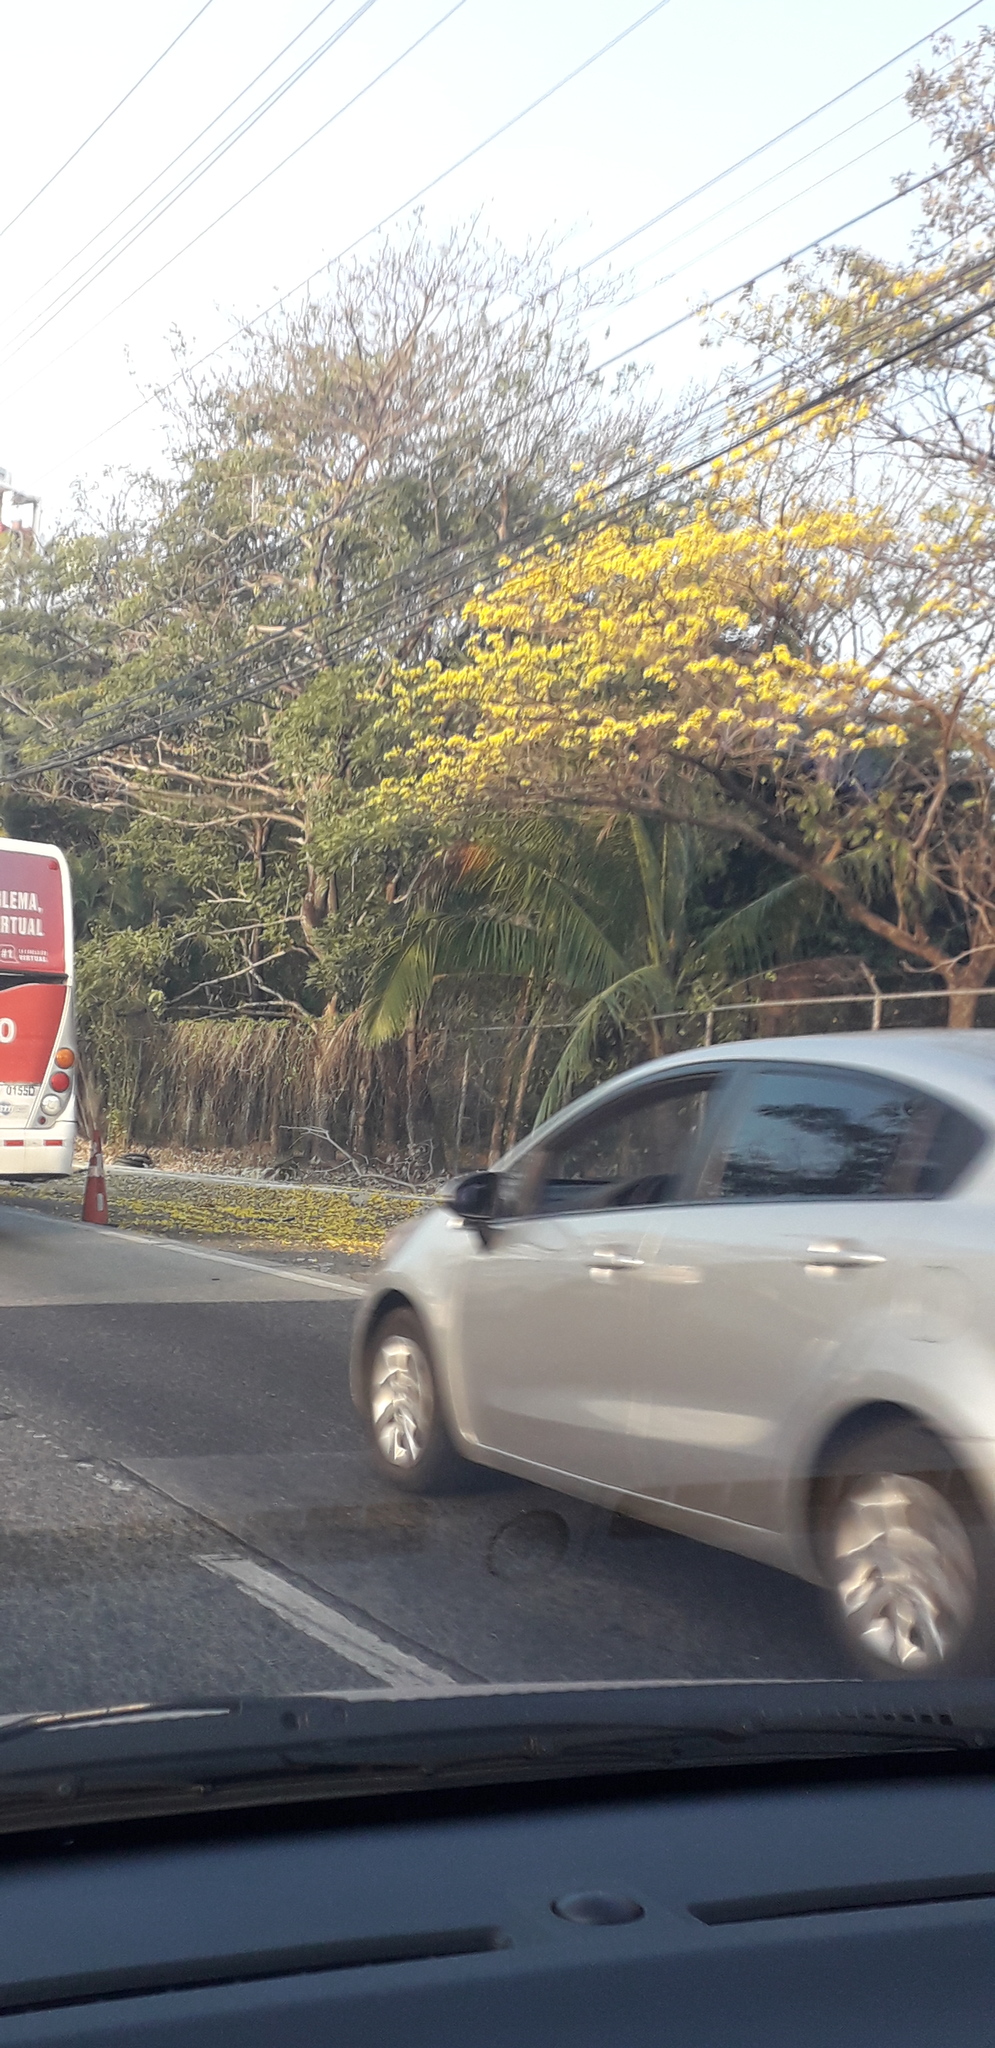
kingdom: Plantae
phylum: Tracheophyta
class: Magnoliopsida
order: Lamiales
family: Bignoniaceae
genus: Handroanthus
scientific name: Handroanthus guayacan
